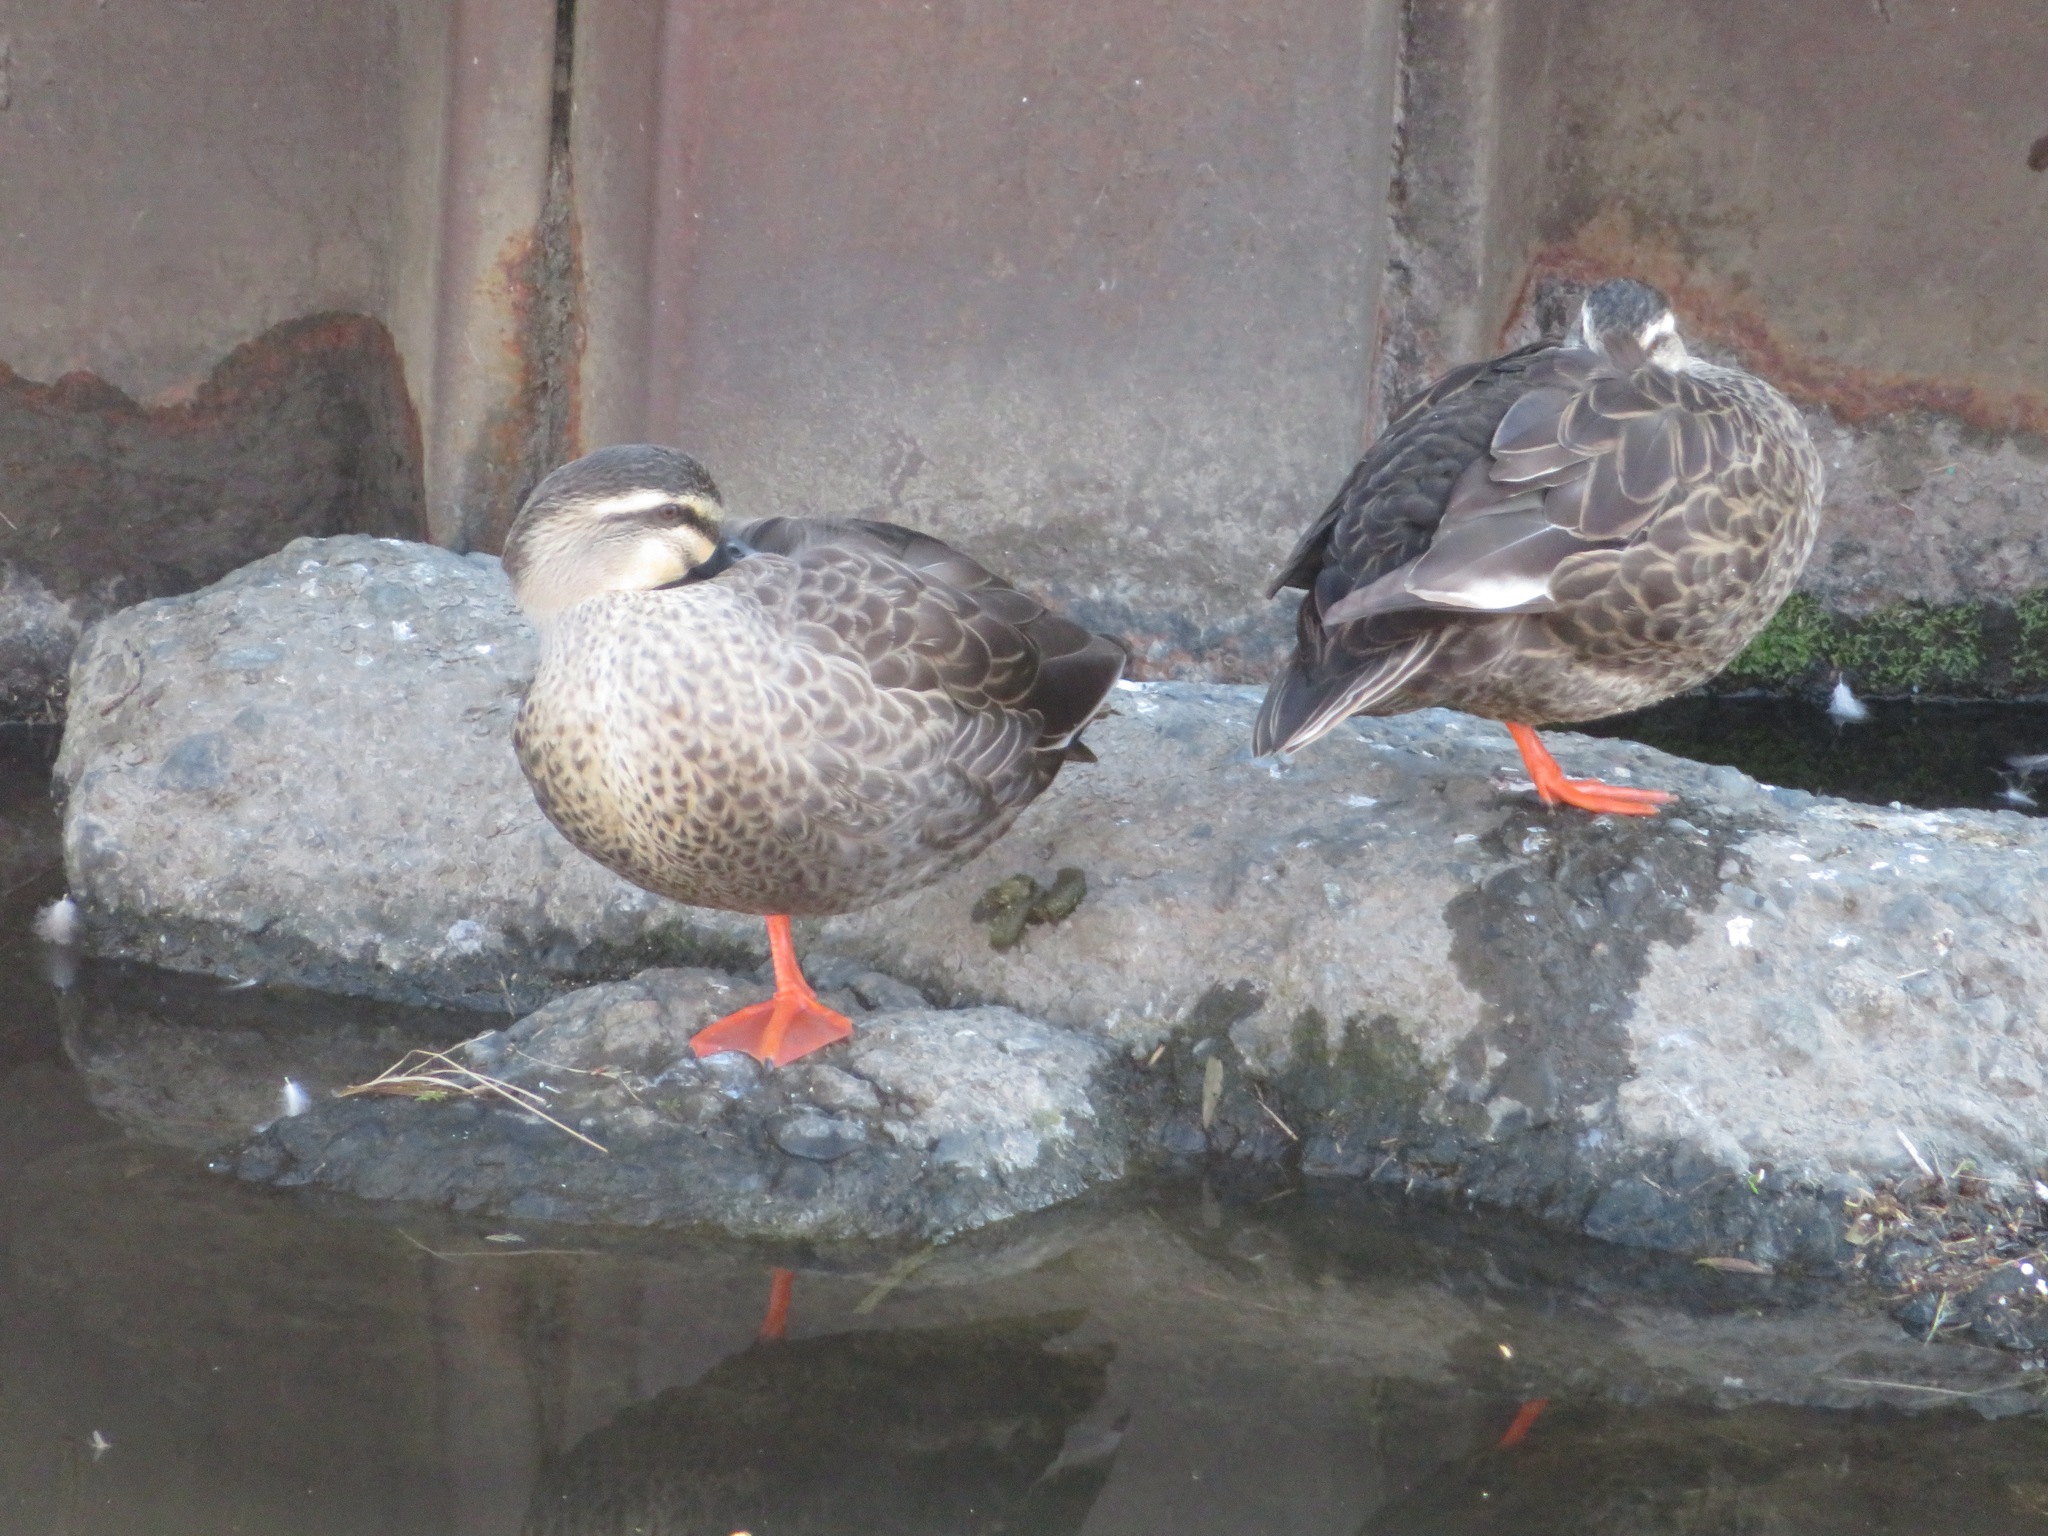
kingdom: Animalia
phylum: Chordata
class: Aves
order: Anseriformes
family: Anatidae
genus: Anas
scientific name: Anas zonorhyncha
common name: Eastern spot-billed duck
